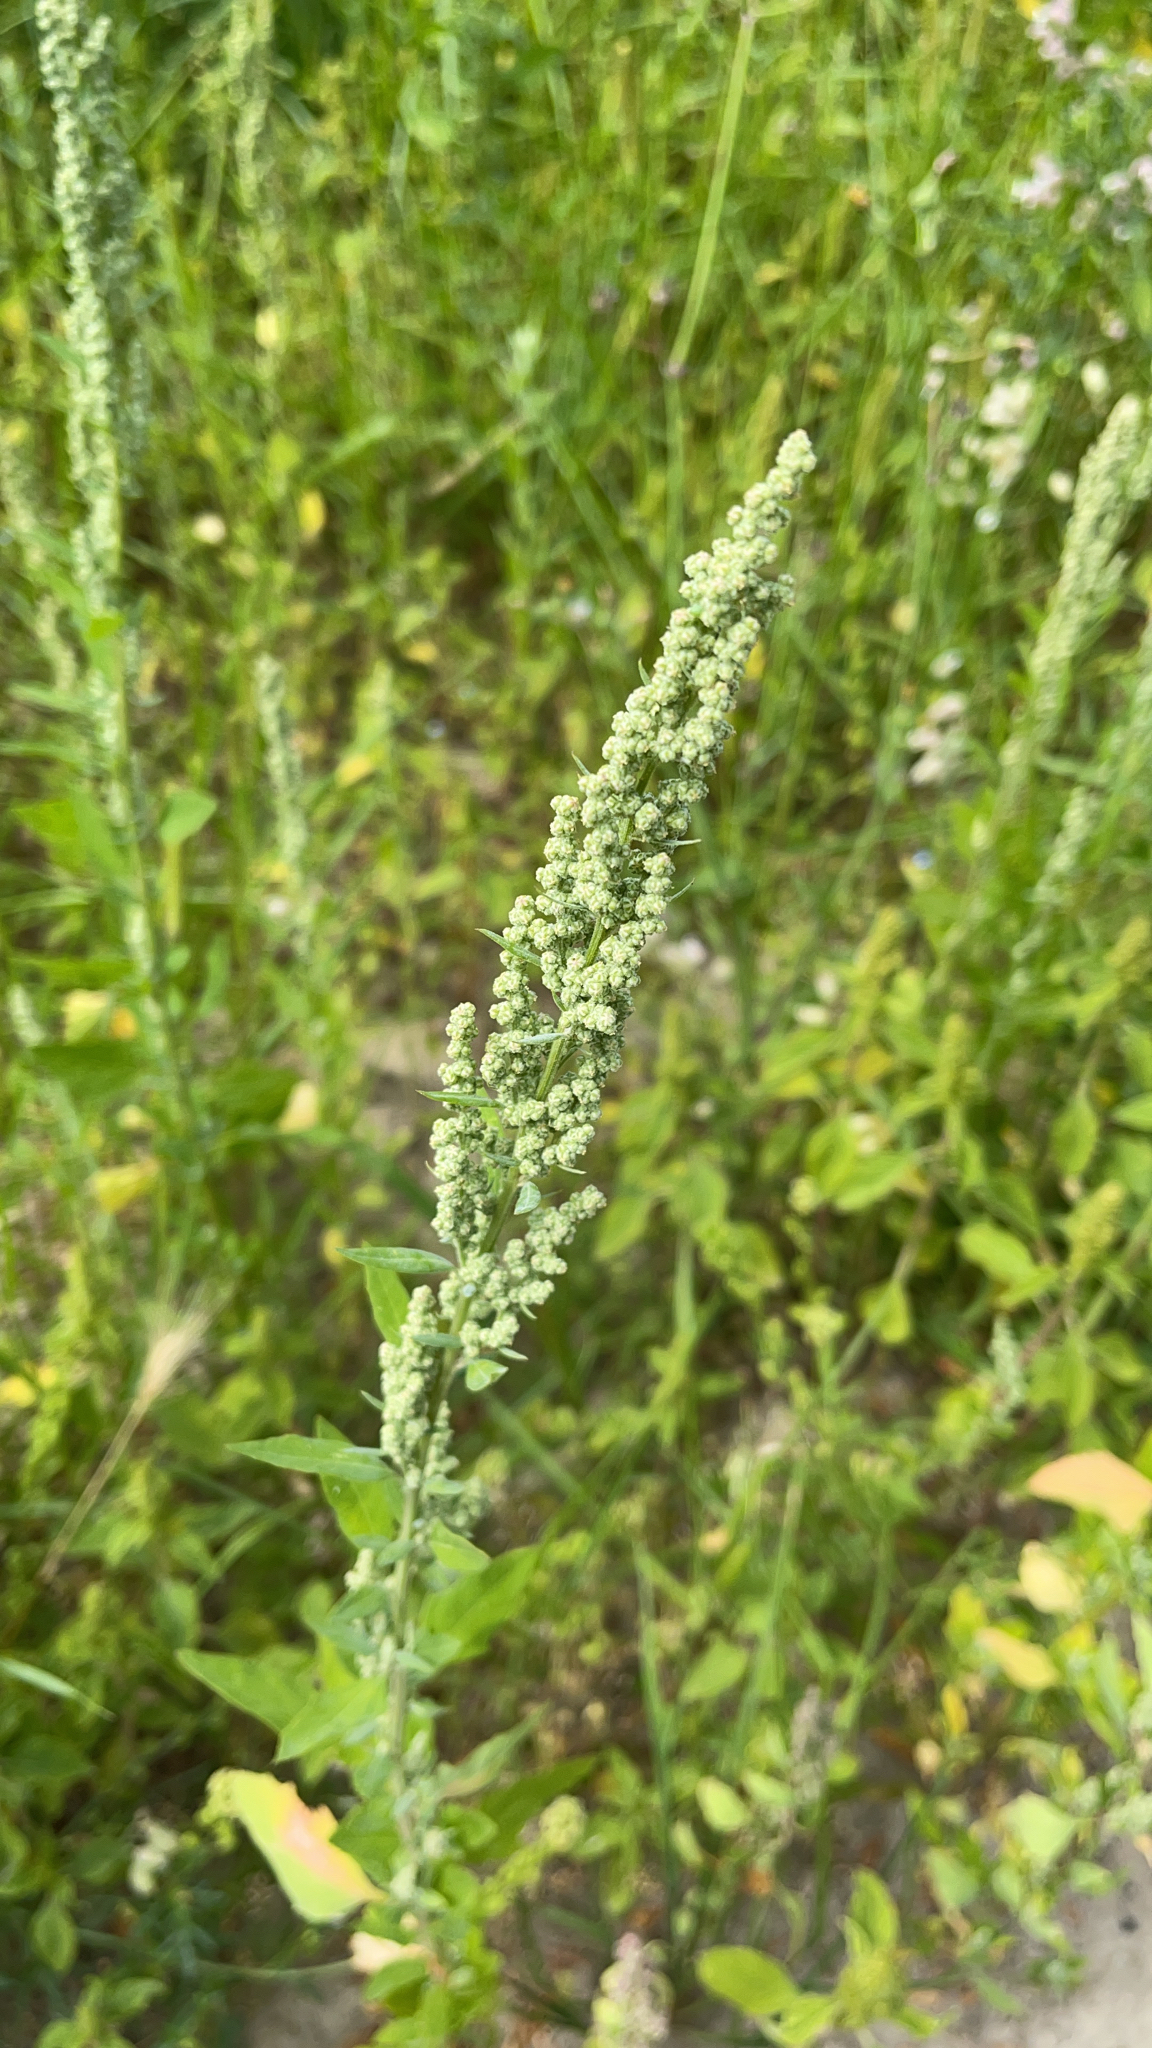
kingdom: Plantae
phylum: Tracheophyta
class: Magnoliopsida
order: Caryophyllales
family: Amaranthaceae
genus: Chenopodium
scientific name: Chenopodium album
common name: Fat-hen
